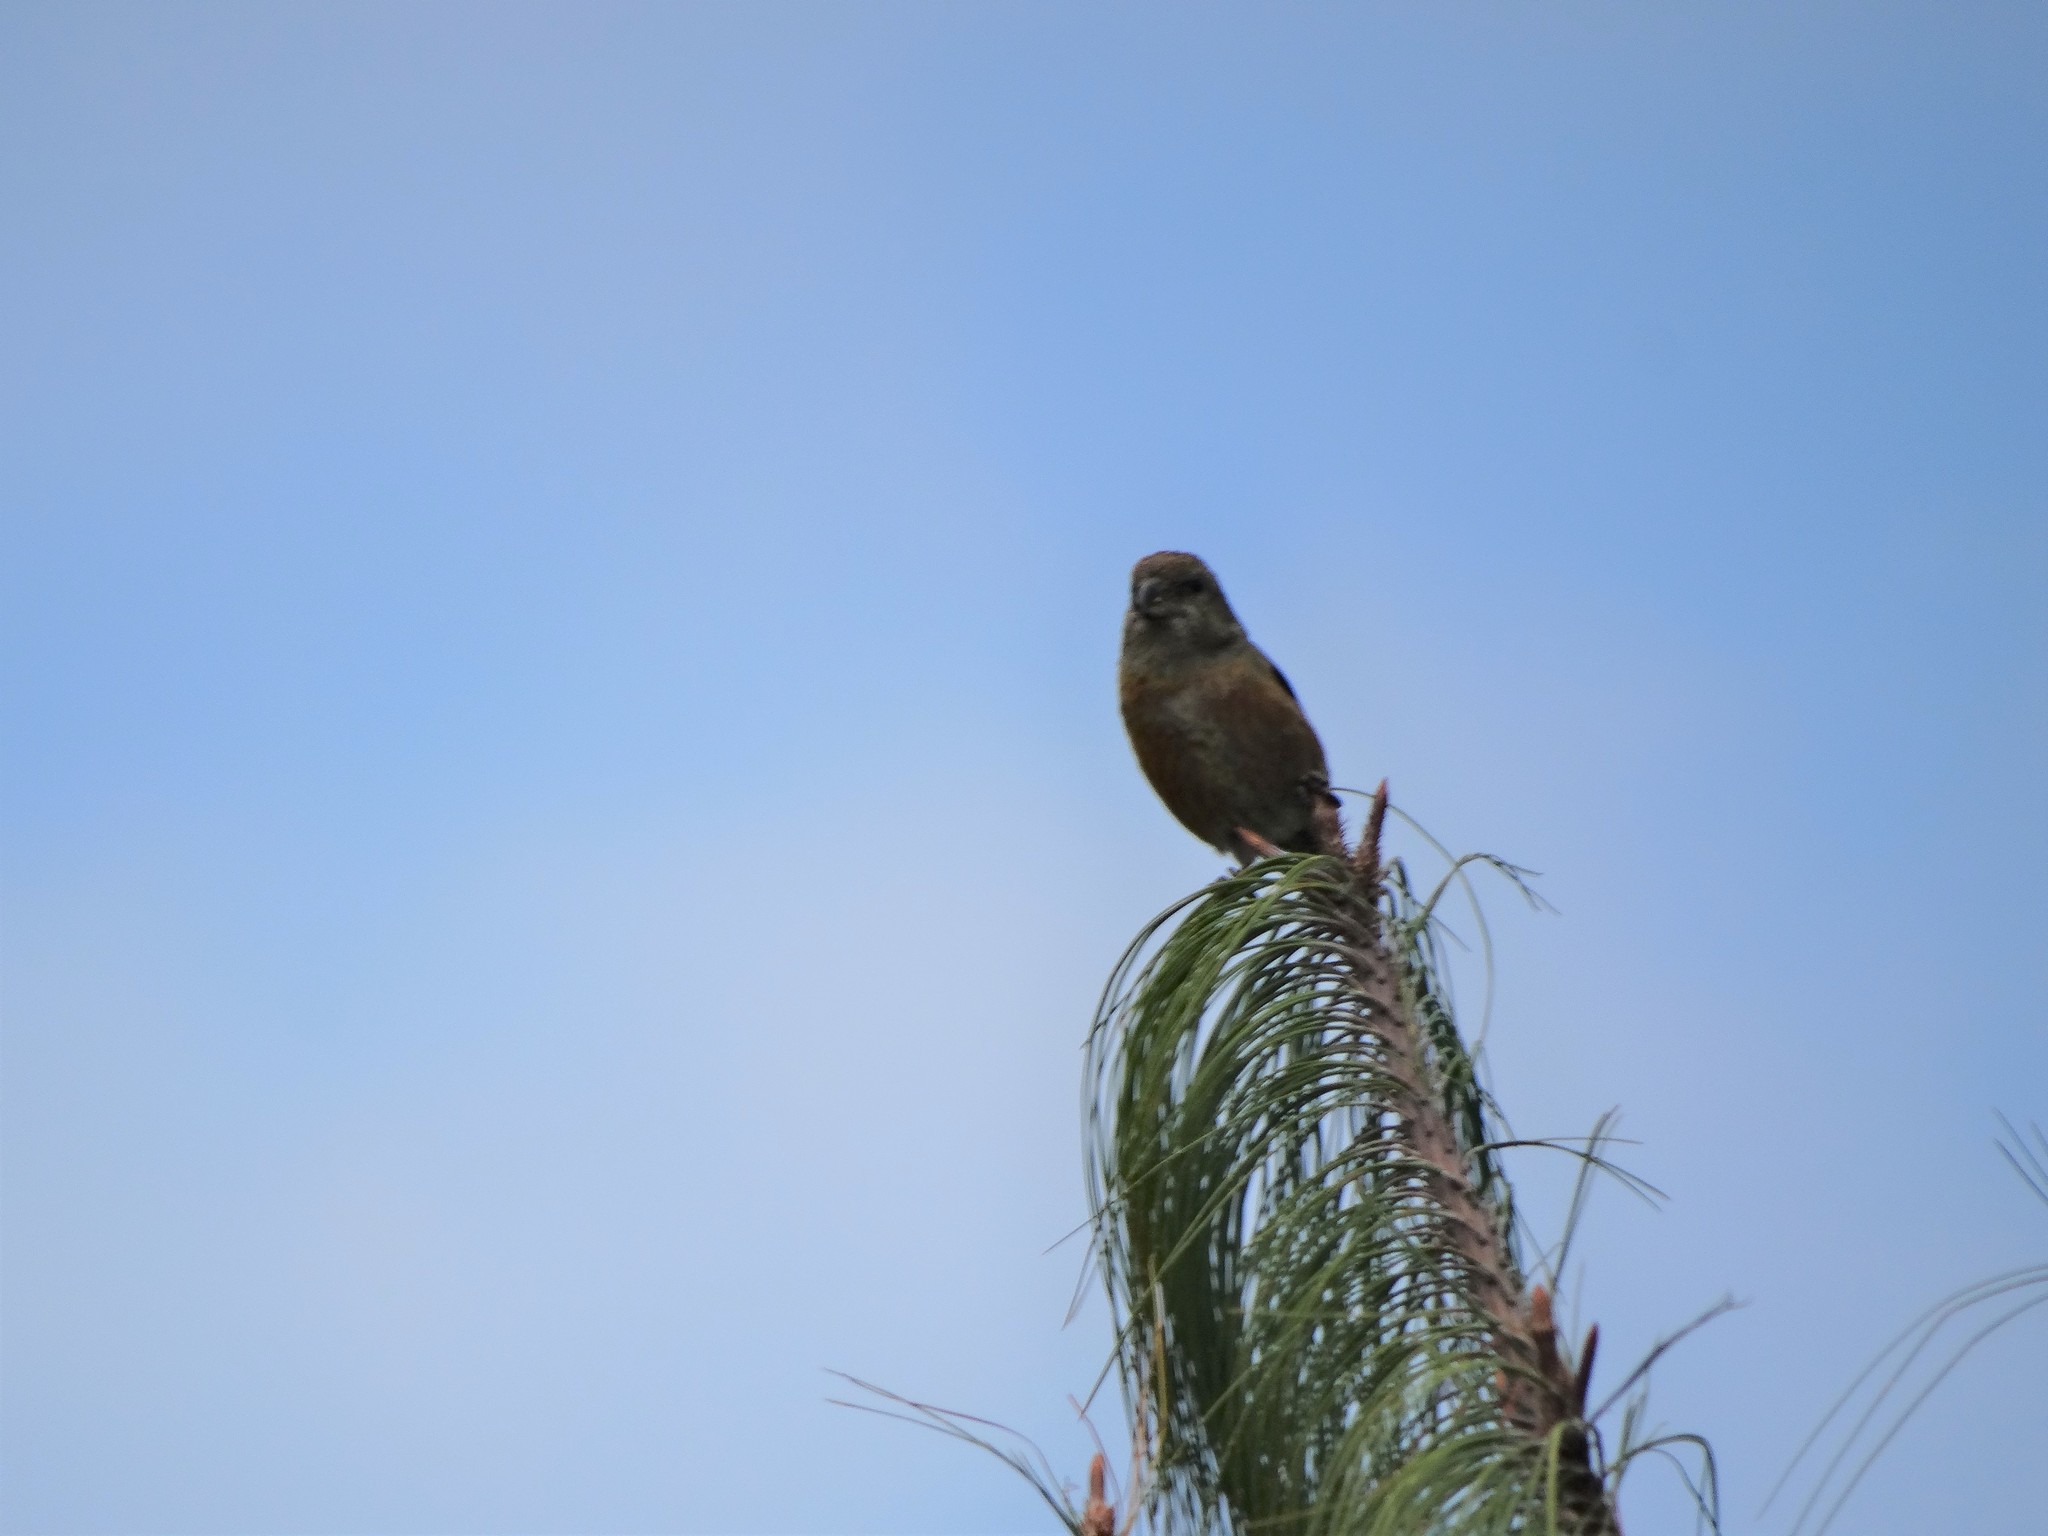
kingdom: Animalia
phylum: Chordata
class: Aves
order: Passeriformes
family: Fringillidae
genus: Loxia
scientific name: Loxia curvirostra
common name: Red crossbill
